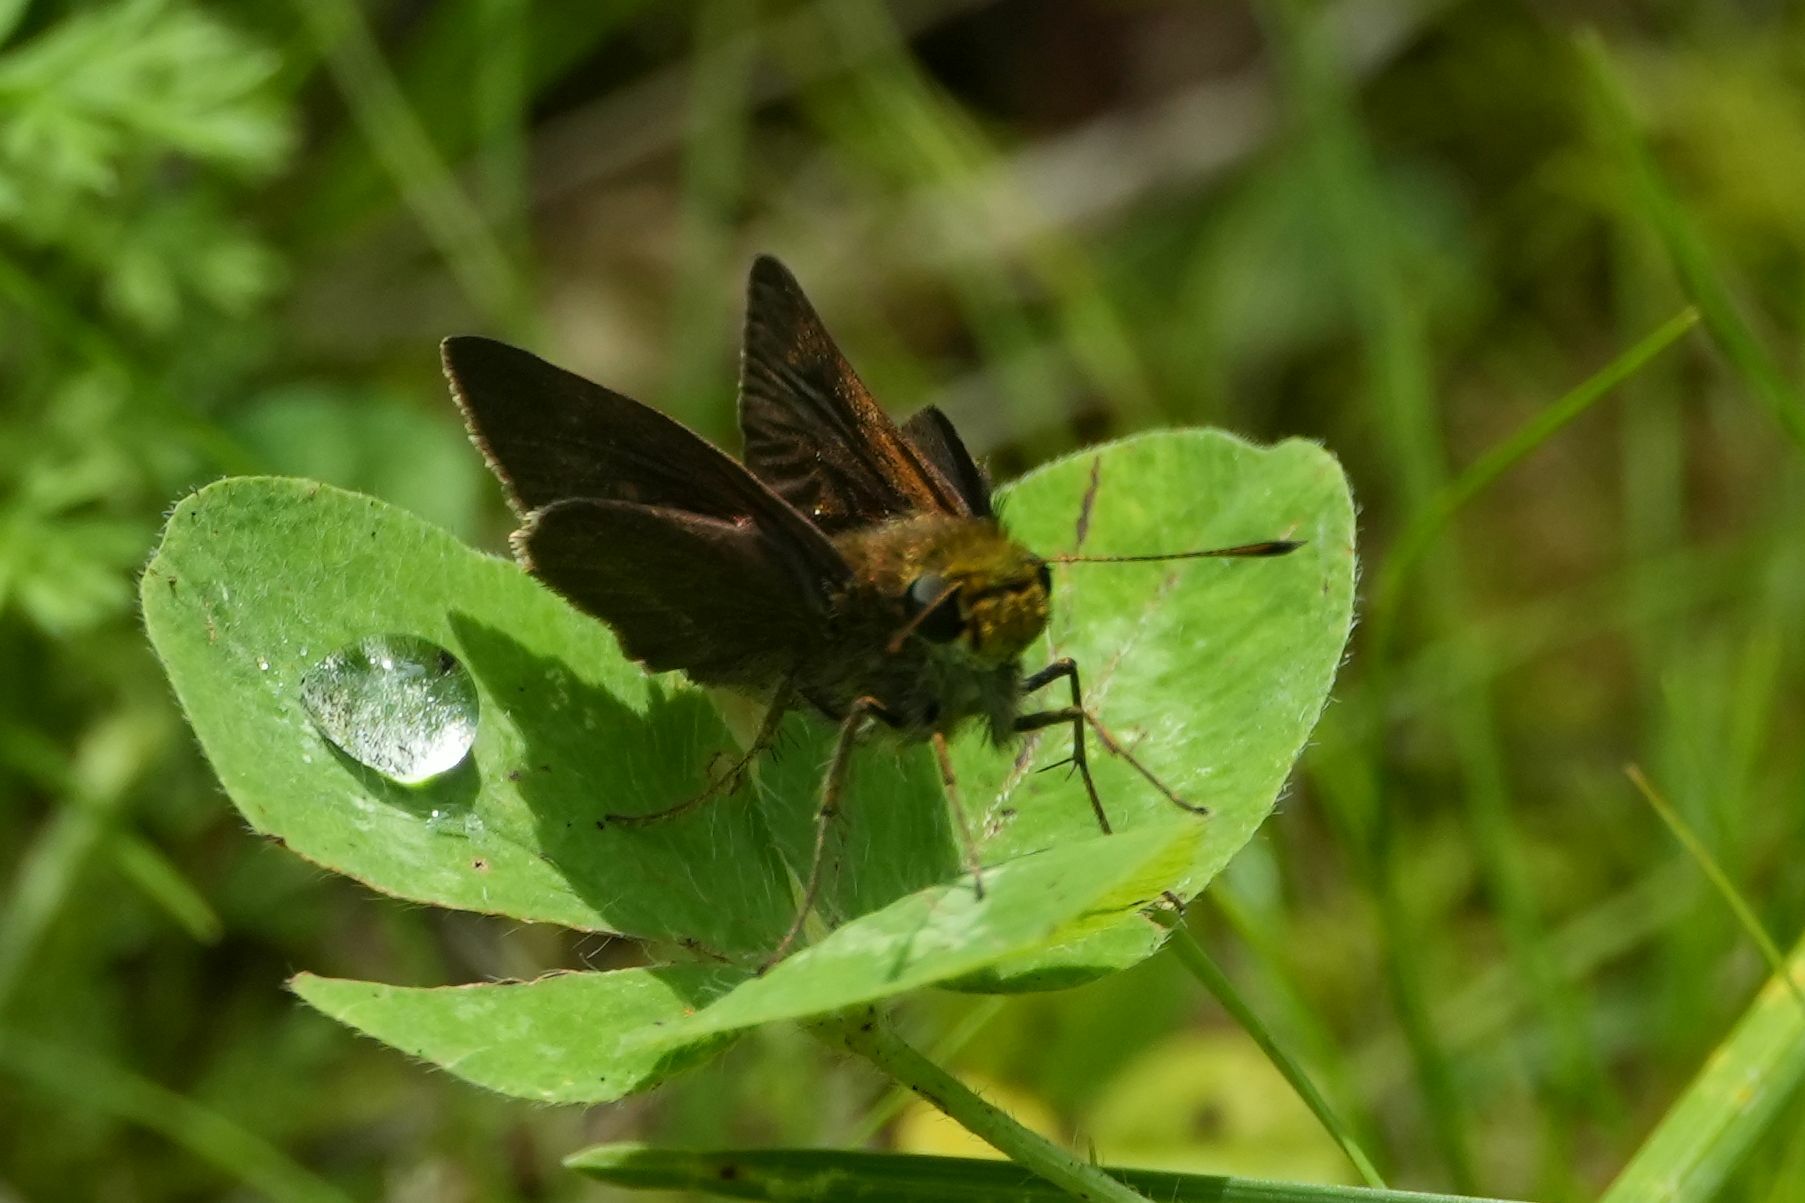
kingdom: Animalia
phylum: Arthropoda
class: Insecta
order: Lepidoptera
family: Hesperiidae
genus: Euphyes
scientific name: Euphyes vestris
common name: Dun skipper
